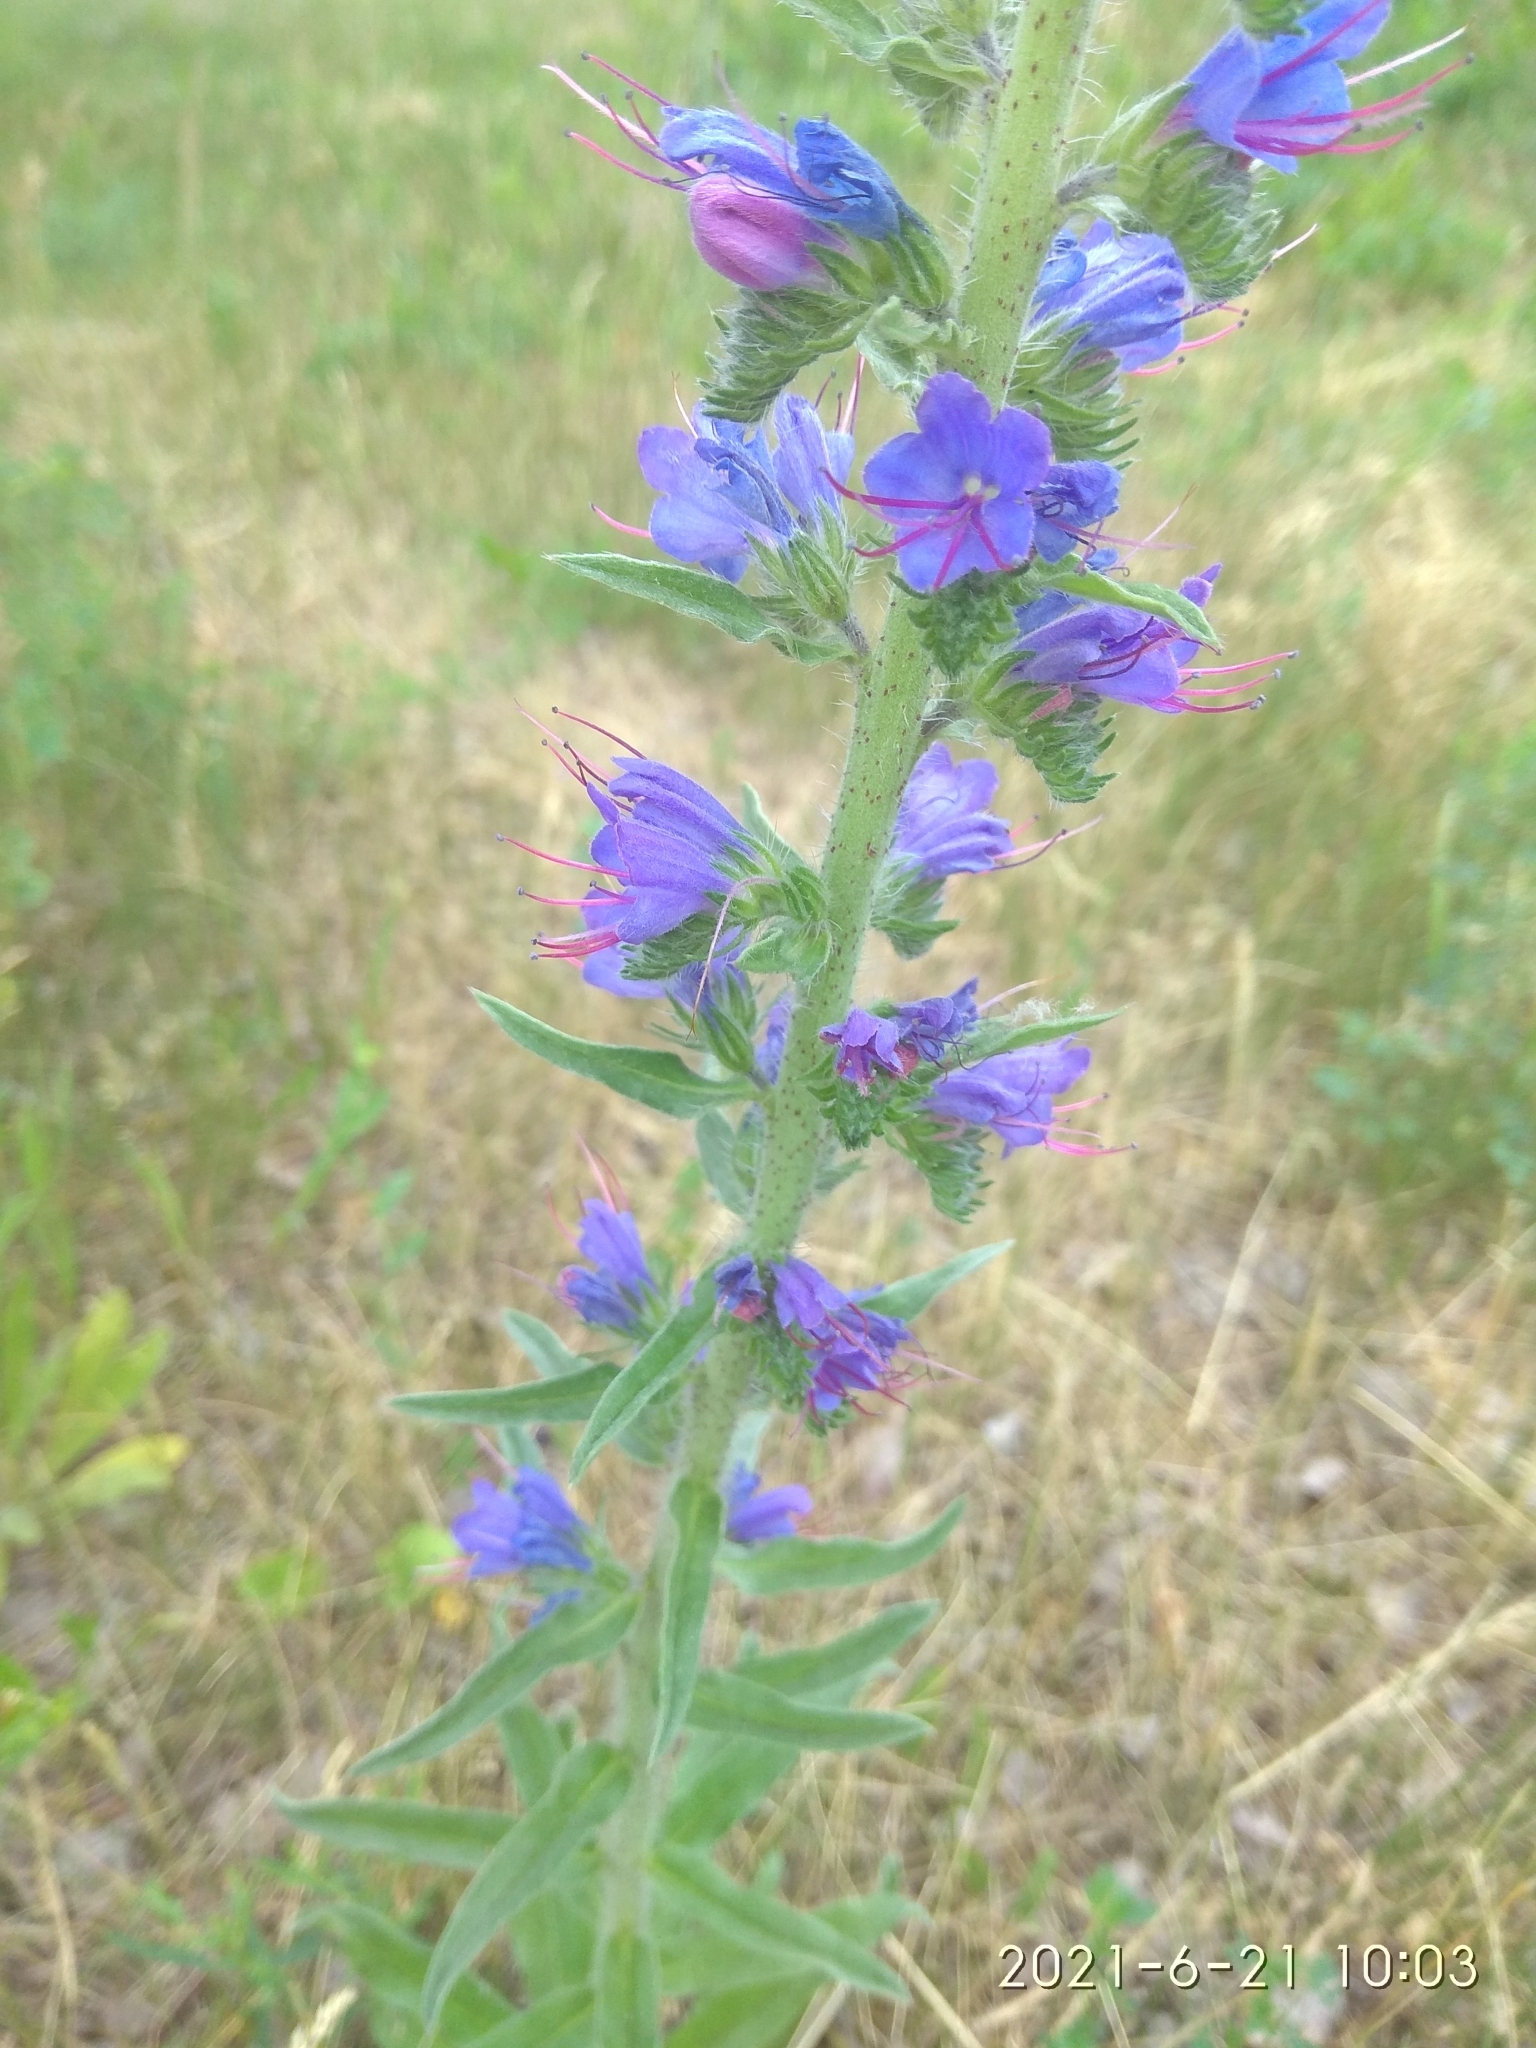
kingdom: Plantae
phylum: Tracheophyta
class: Magnoliopsida
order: Boraginales
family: Boraginaceae
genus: Echium
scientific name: Echium vulgare
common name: Common viper's bugloss
